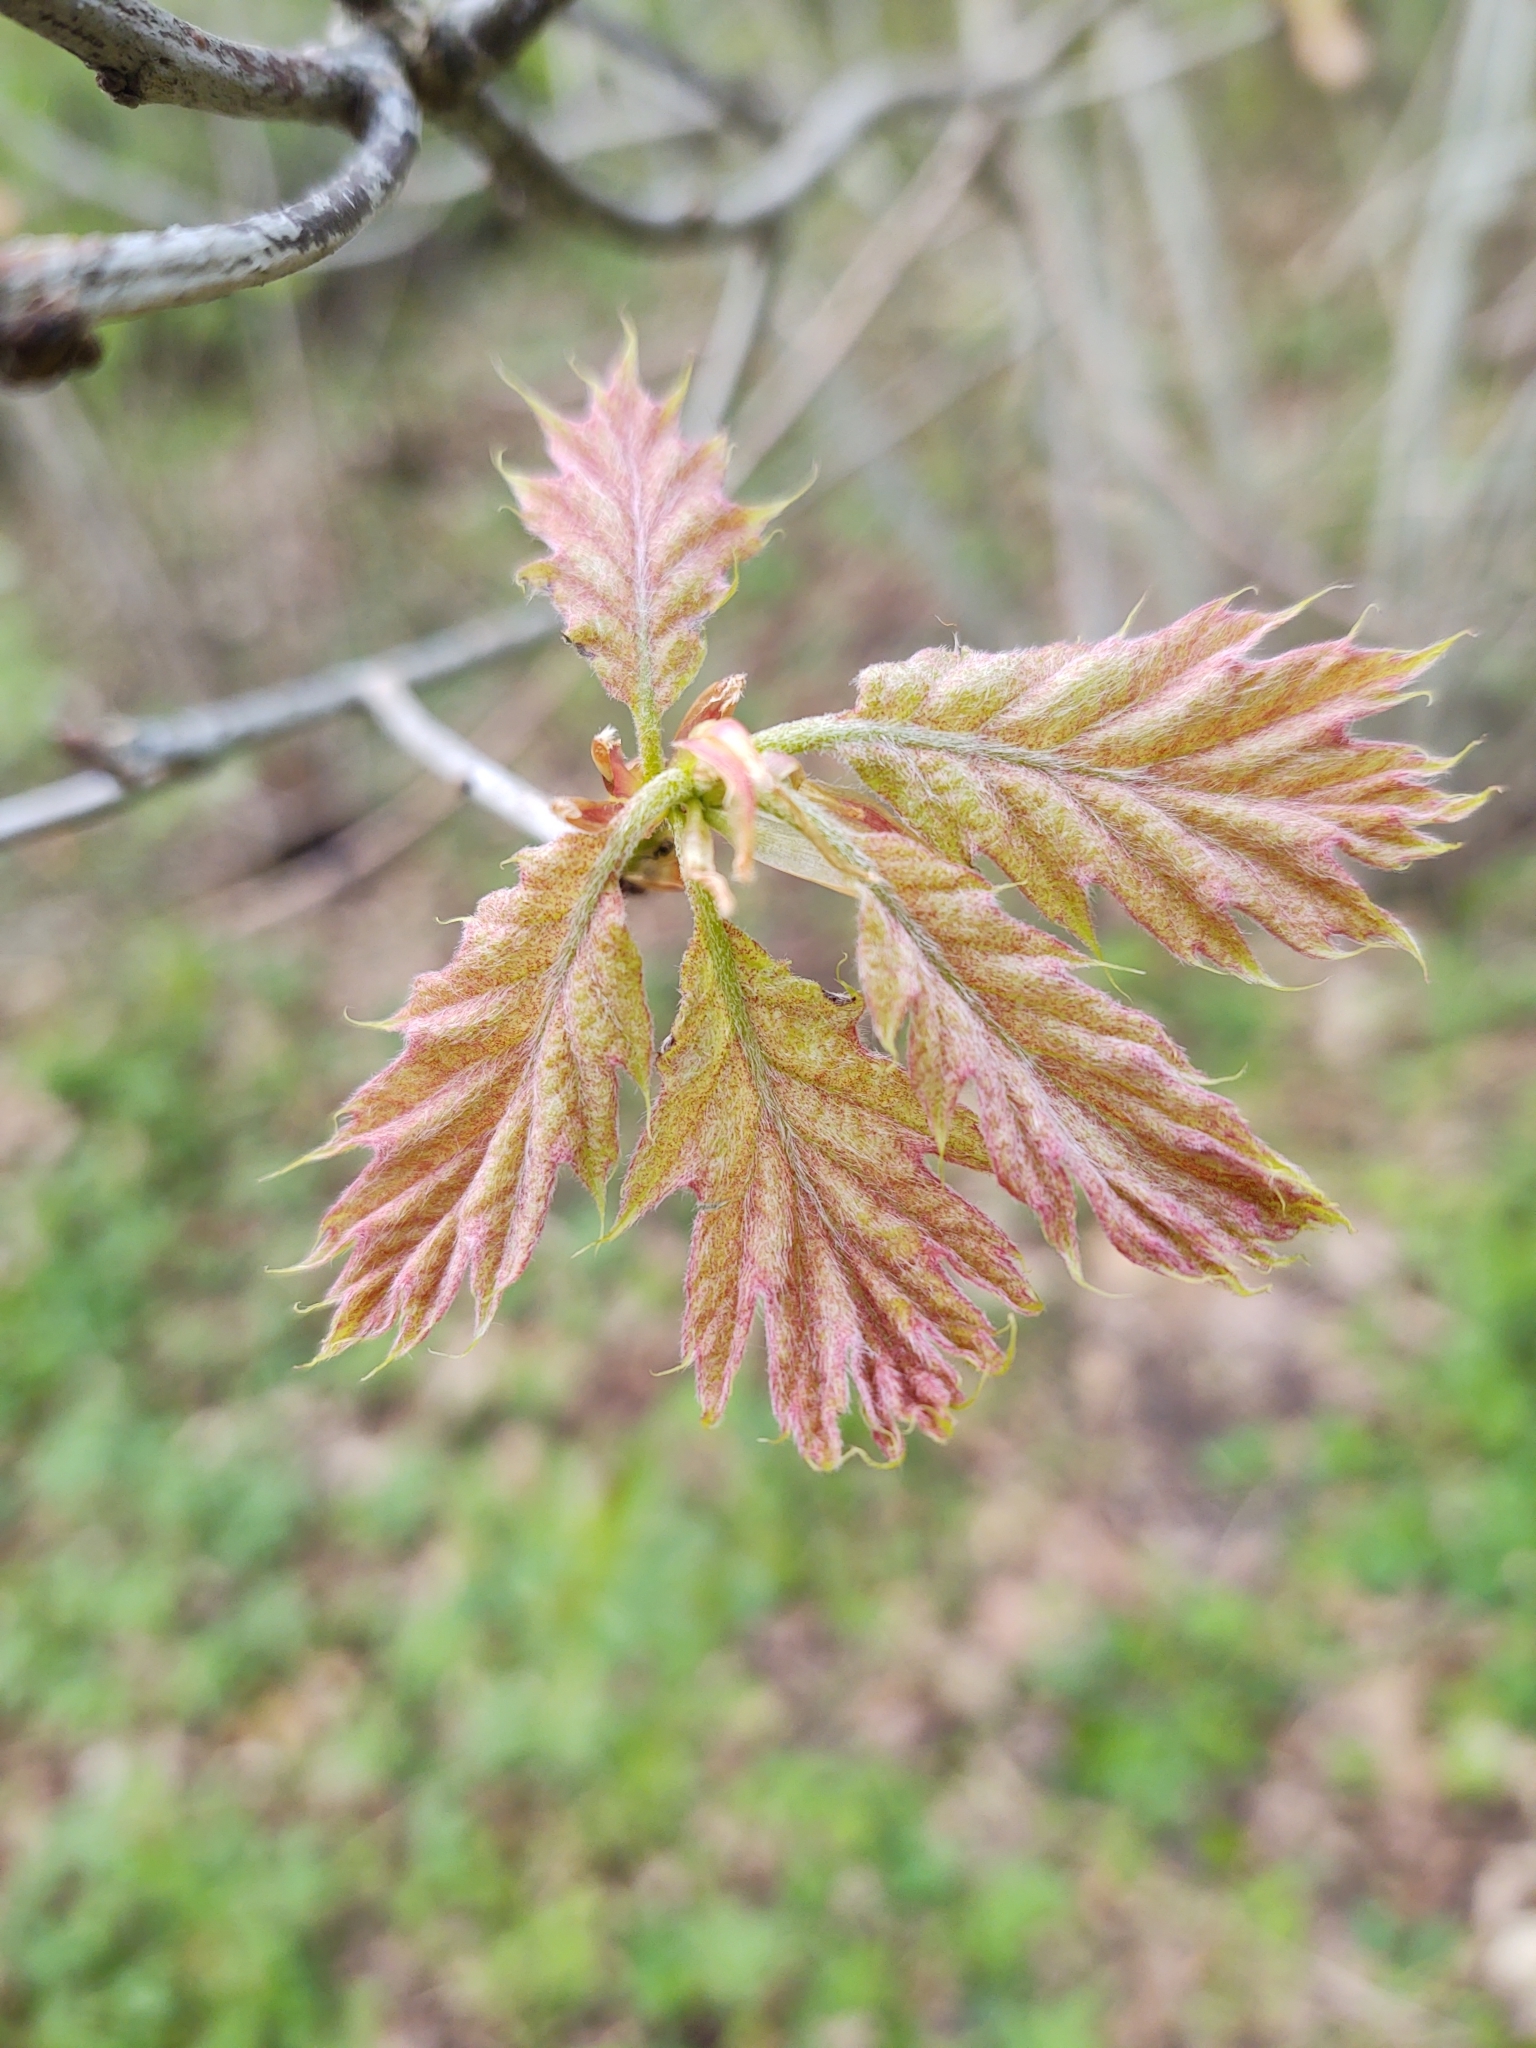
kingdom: Plantae
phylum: Tracheophyta
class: Magnoliopsida
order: Fagales
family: Fagaceae
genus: Quercus
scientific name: Quercus rubra
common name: Red oak
